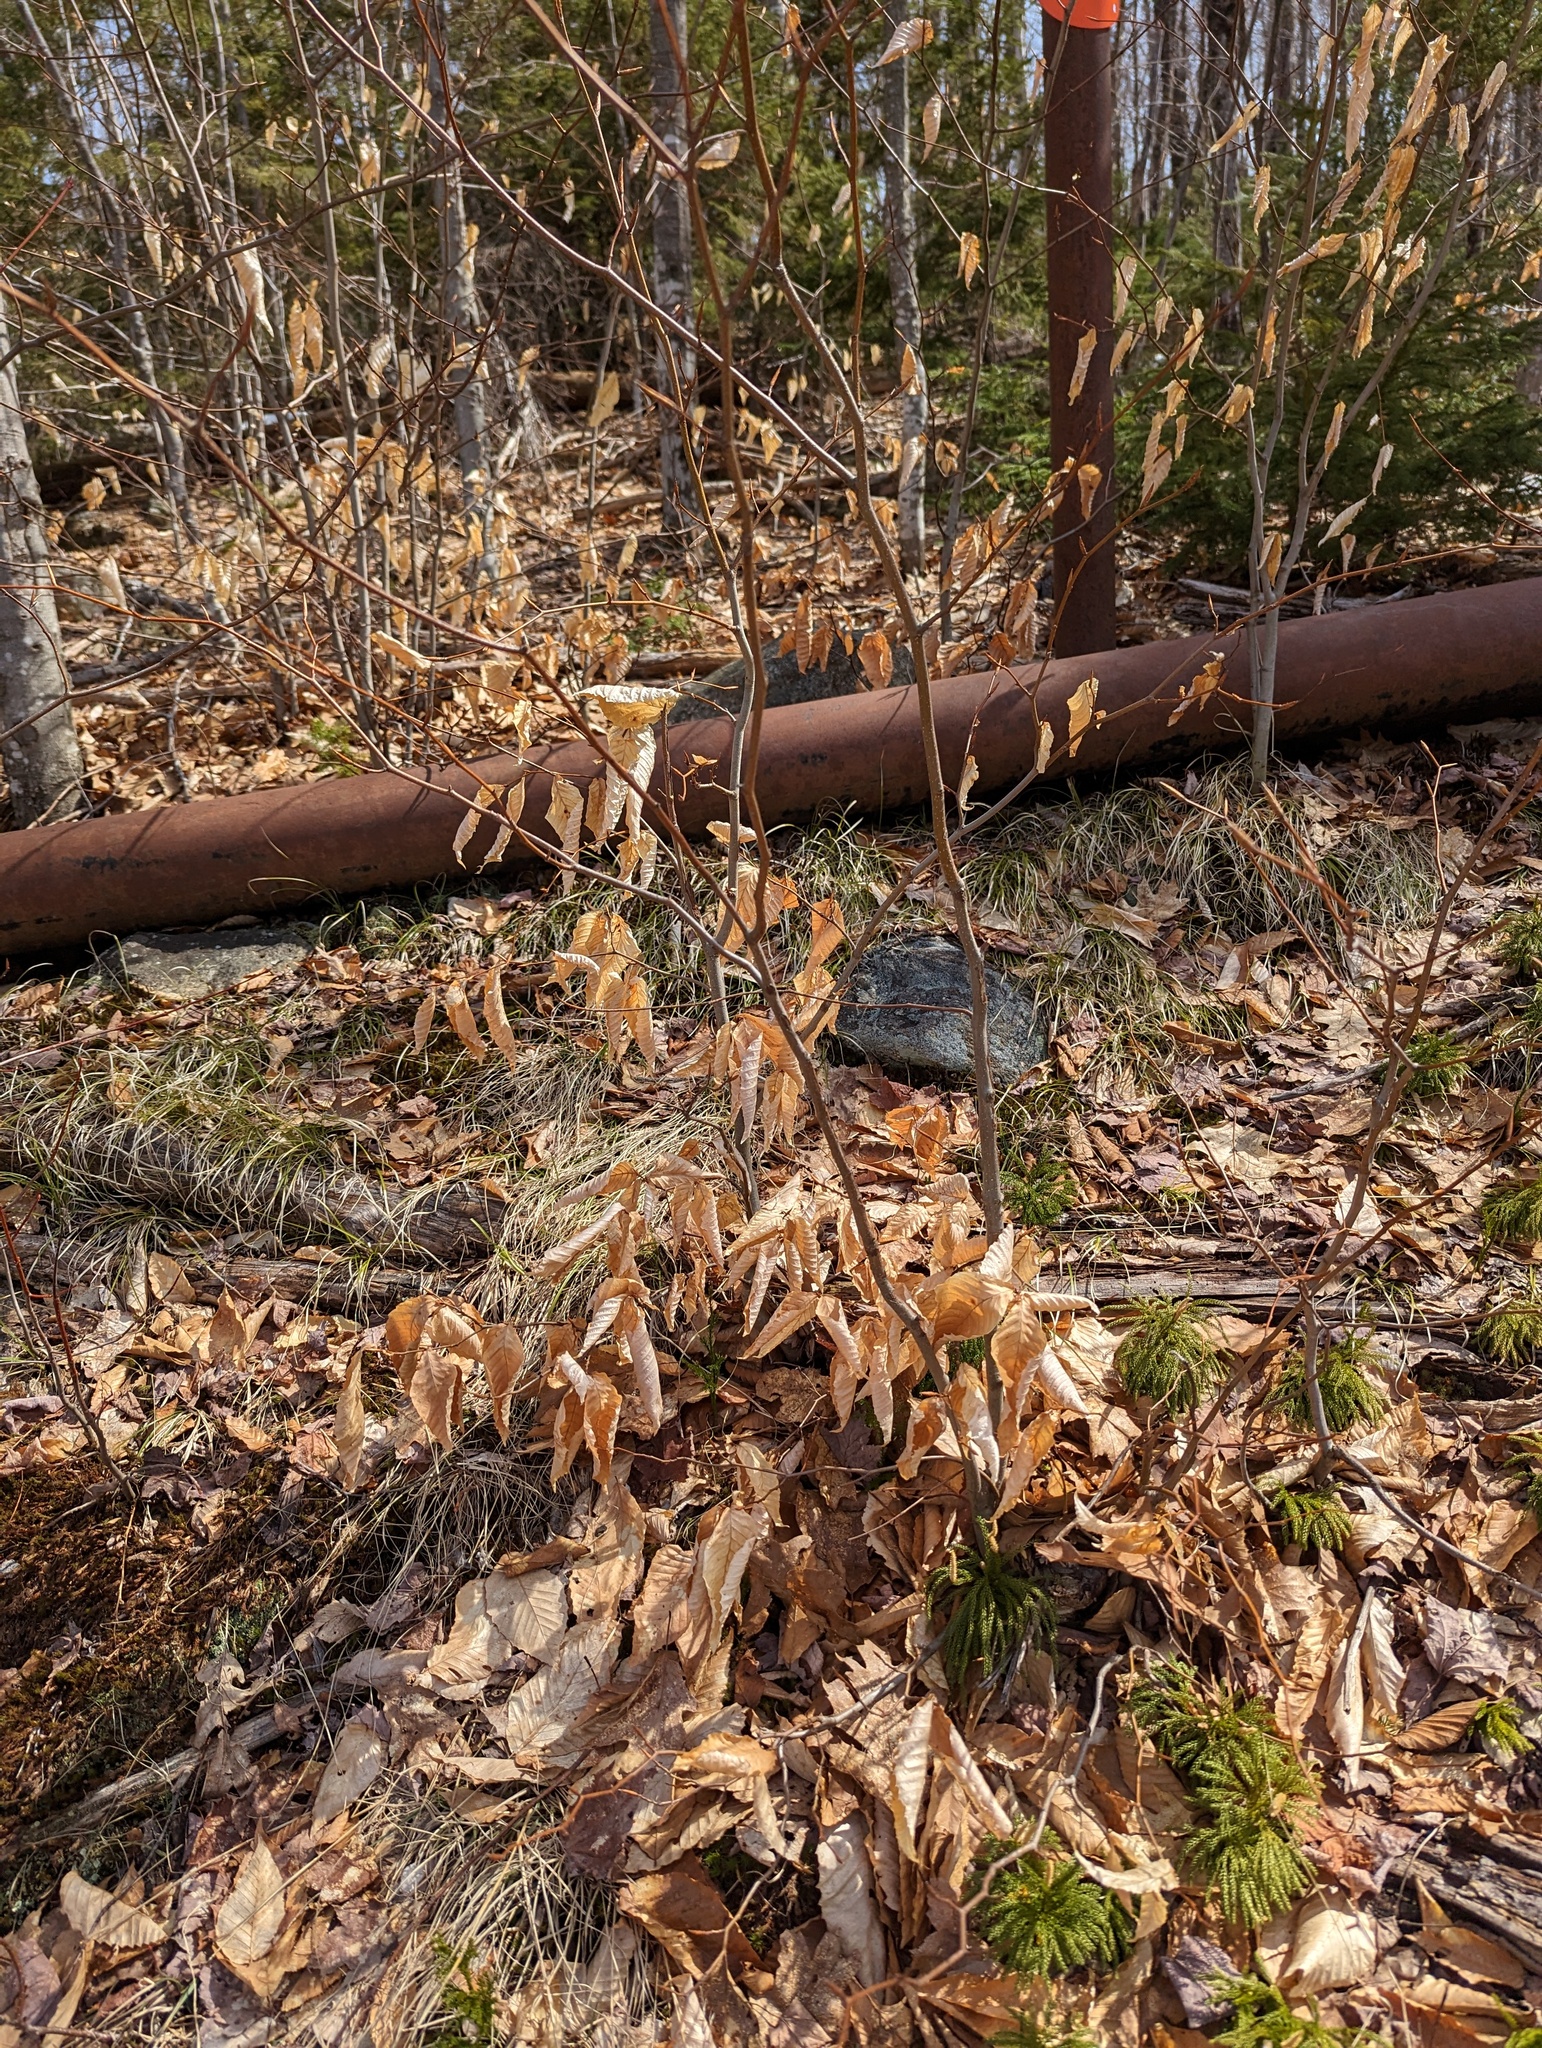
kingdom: Plantae
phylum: Tracheophyta
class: Magnoliopsida
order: Fagales
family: Fagaceae
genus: Fagus
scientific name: Fagus grandifolia
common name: American beech
